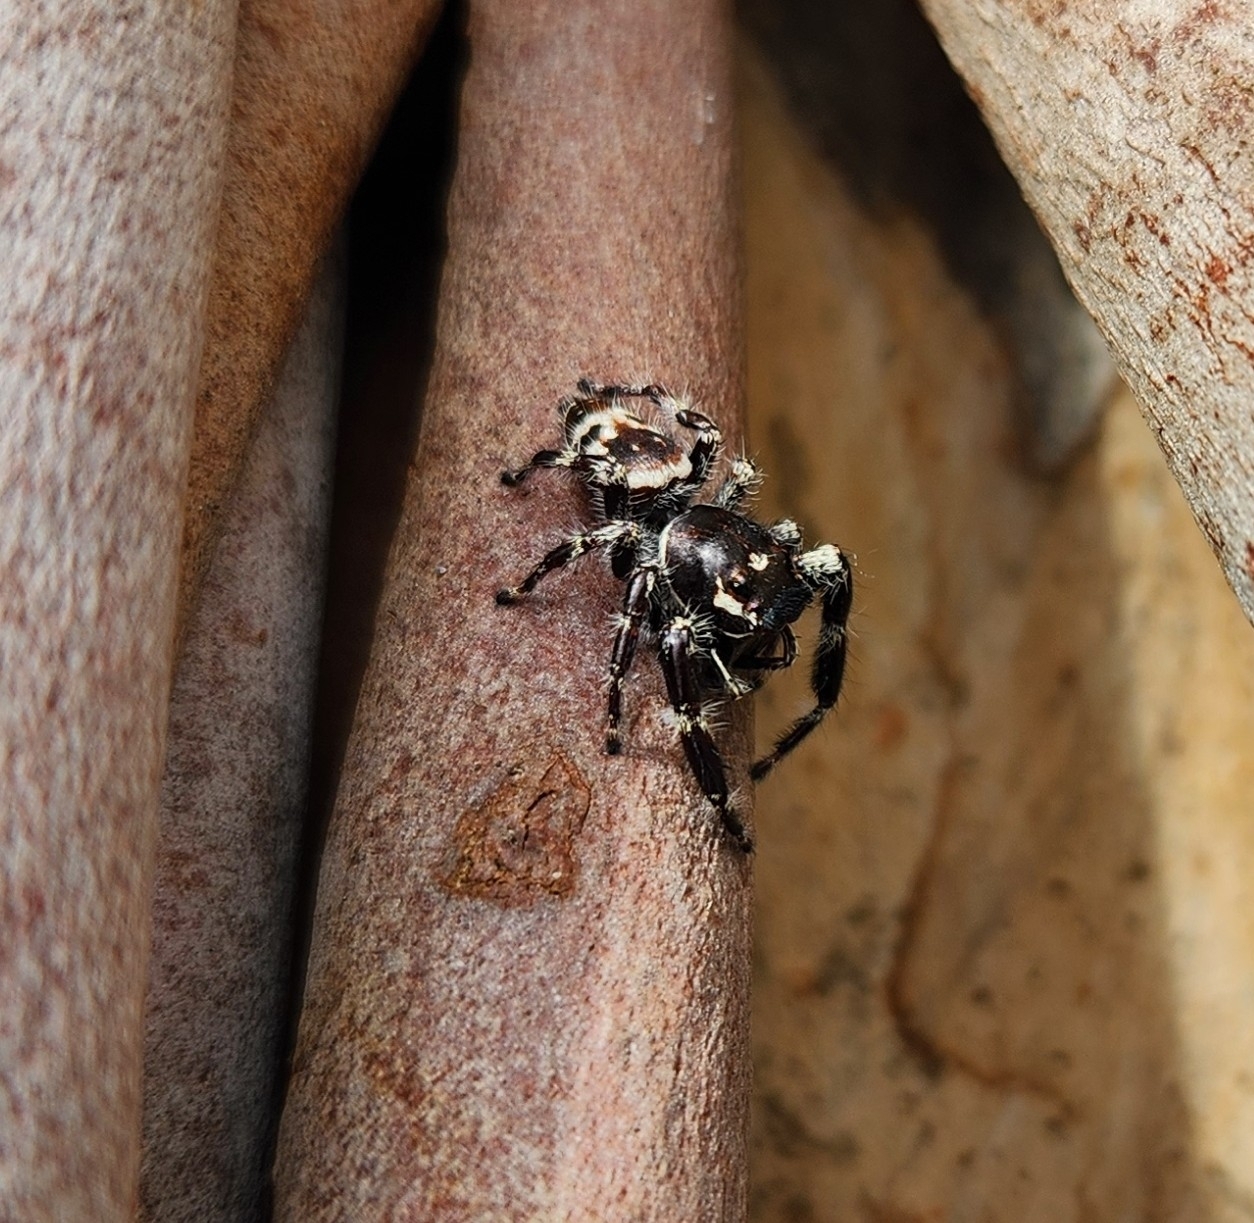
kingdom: Animalia
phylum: Arthropoda
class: Arachnida
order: Araneae
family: Salticidae
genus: Sandalodes
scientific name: Sandalodes superbus
